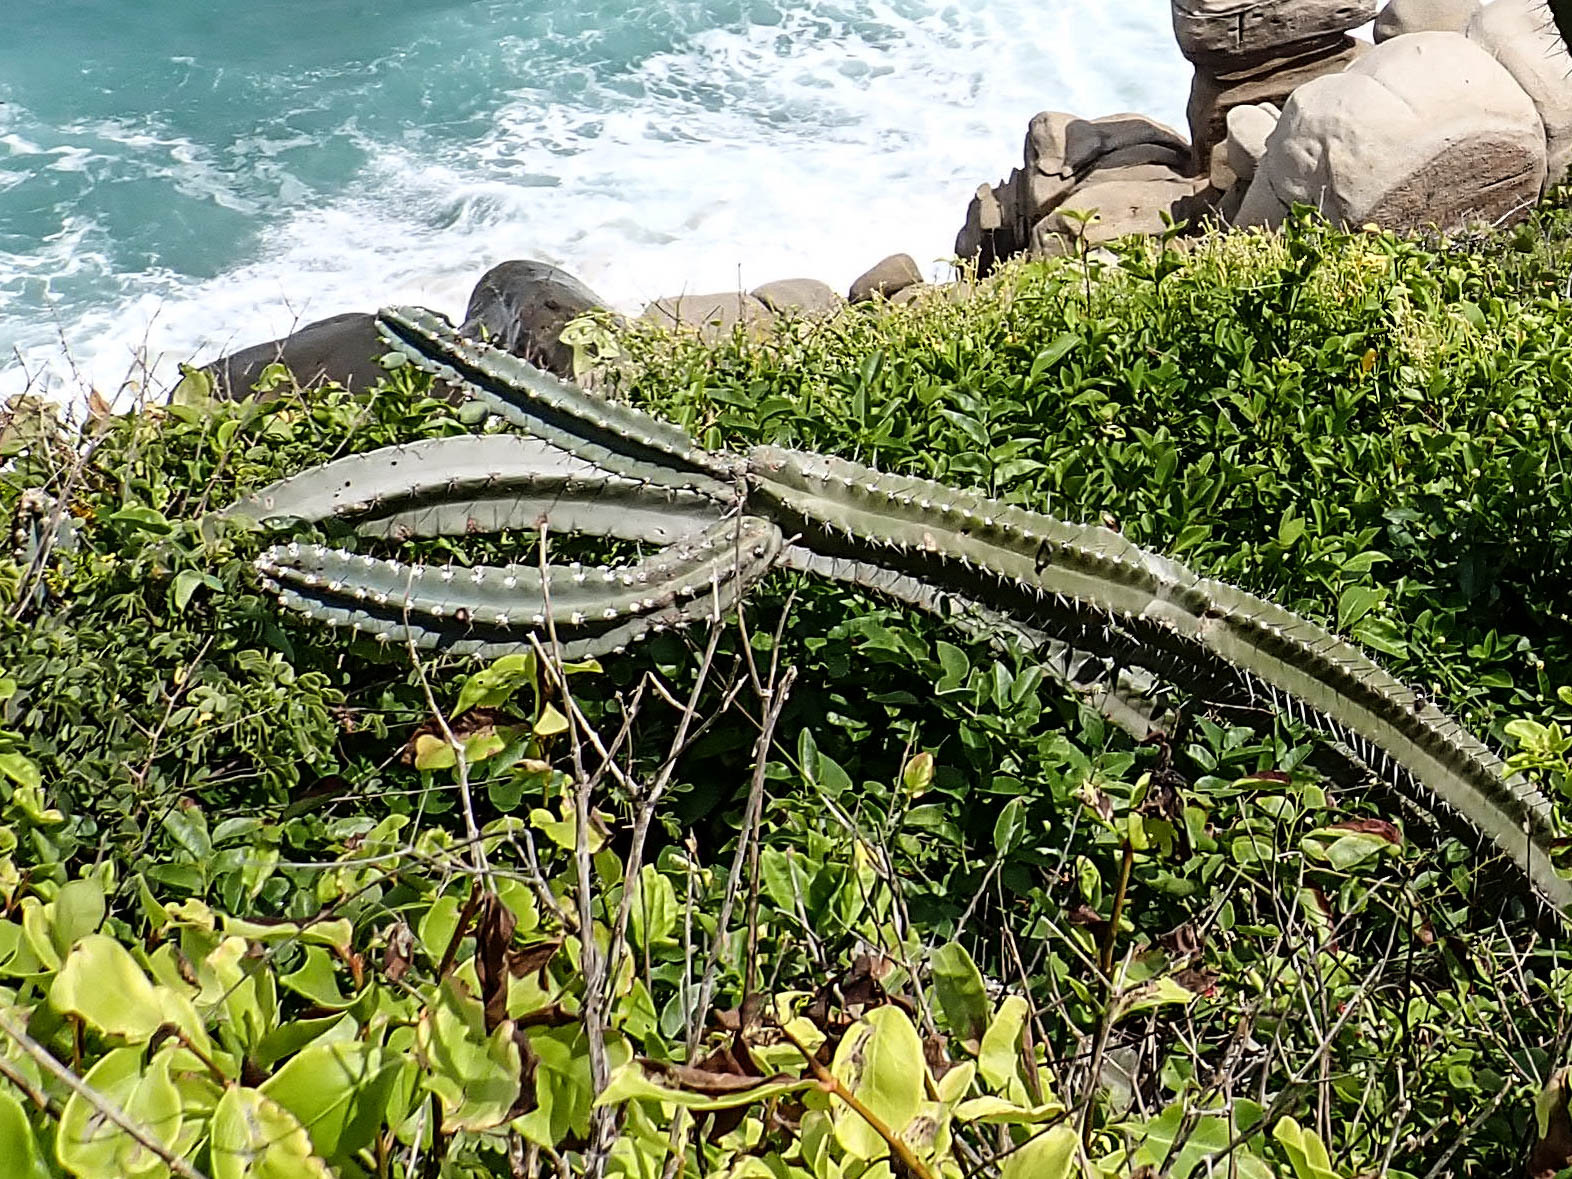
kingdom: Plantae
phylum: Tracheophyta
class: Magnoliopsida
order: Caryophyllales
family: Cactaceae
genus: Cereus
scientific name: Cereus horrispinus
